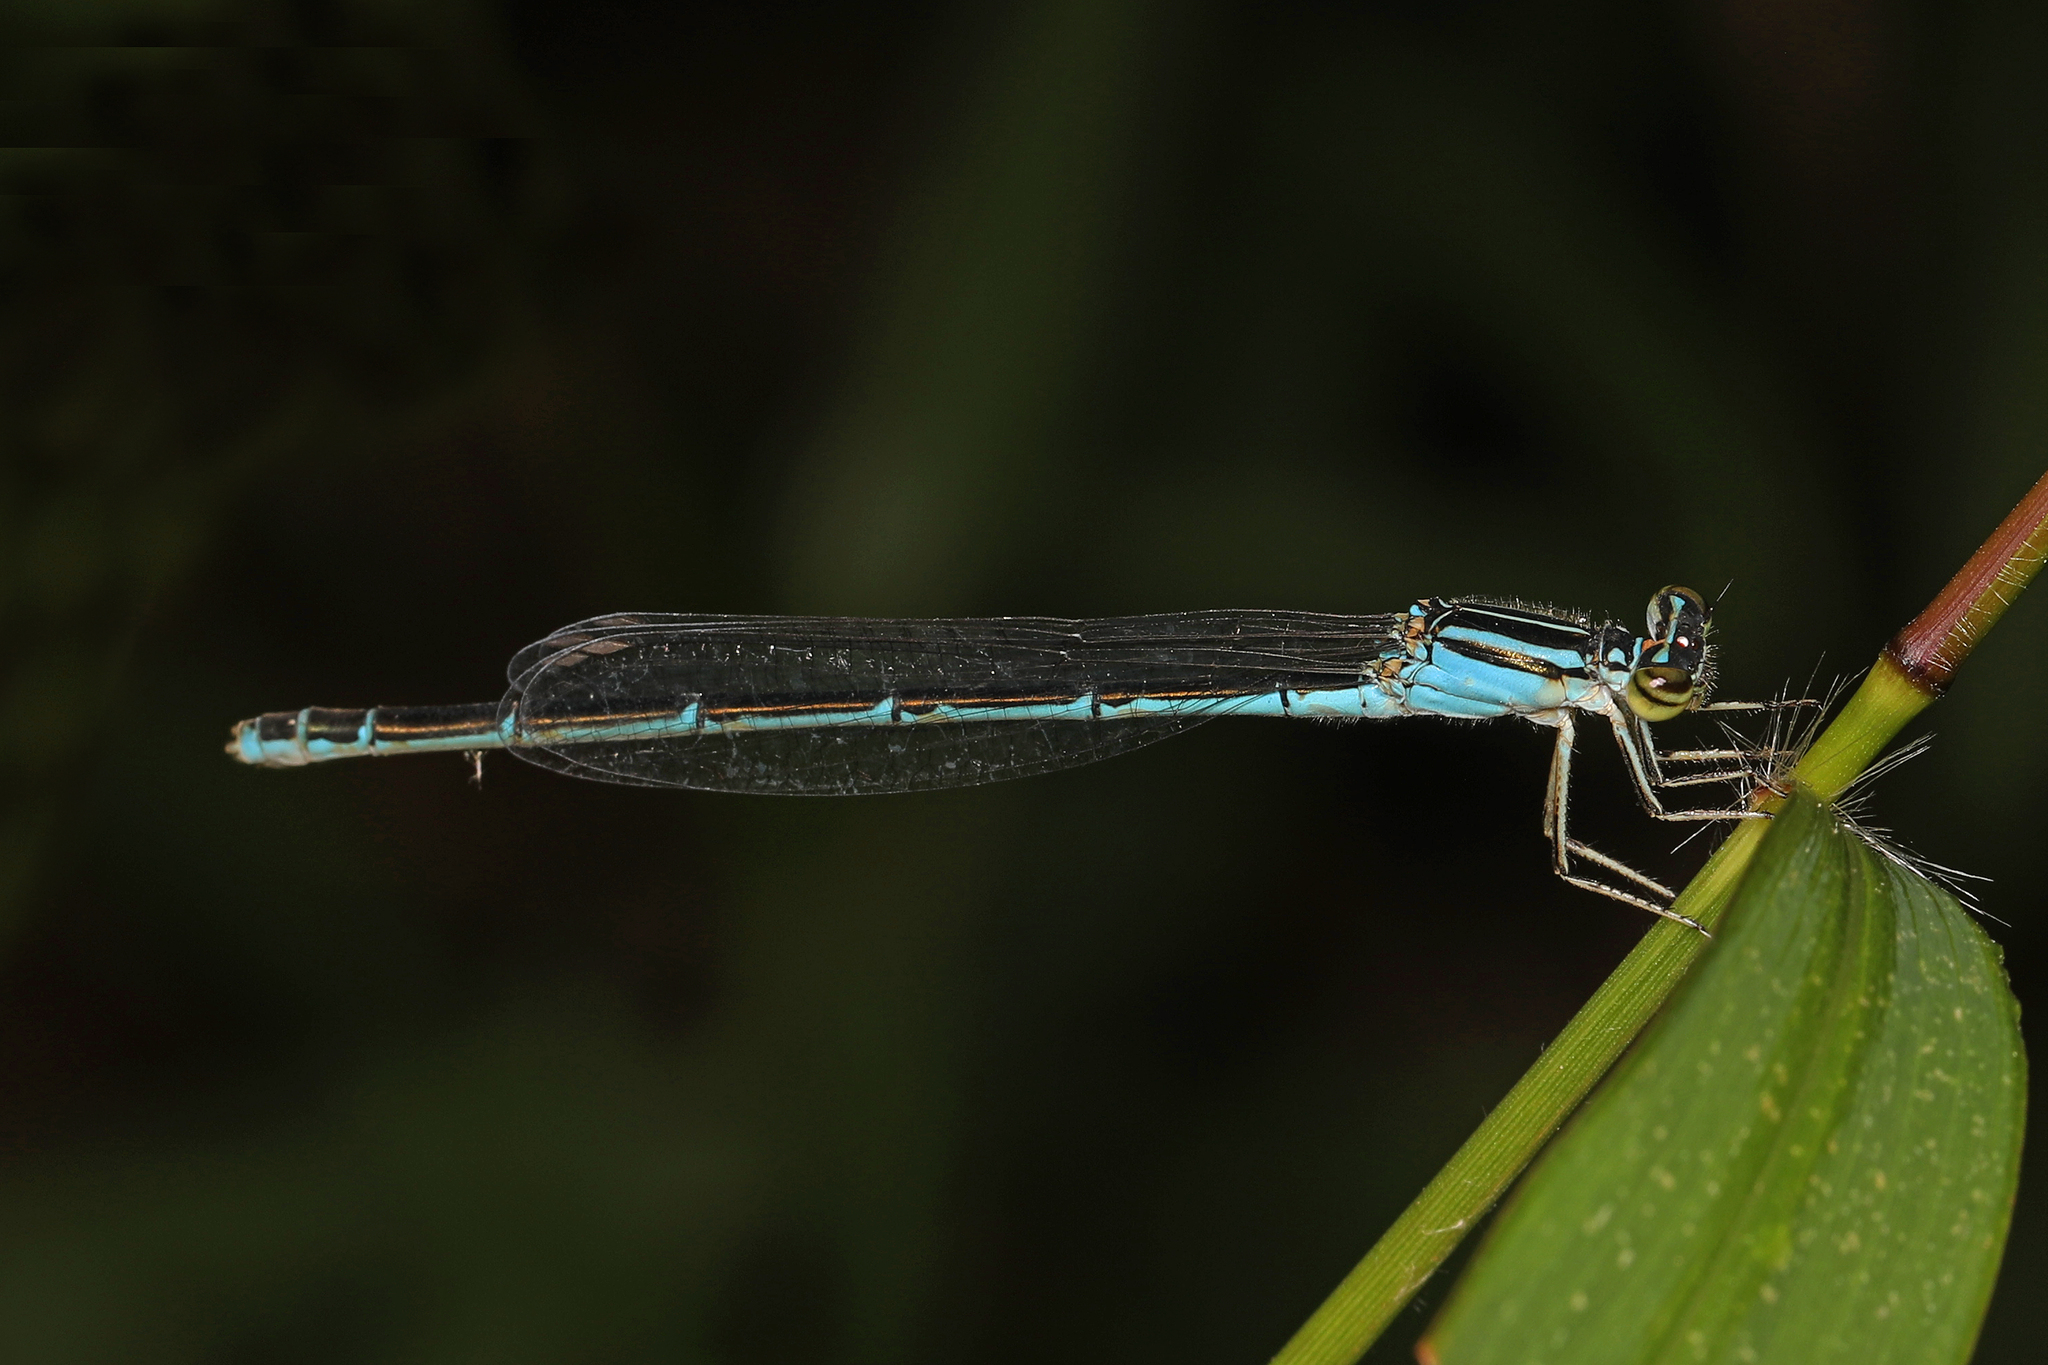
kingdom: Animalia
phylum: Arthropoda
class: Insecta
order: Odonata
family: Coenagrionidae
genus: Enallagma
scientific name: Enallagma durum
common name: Big bluet
